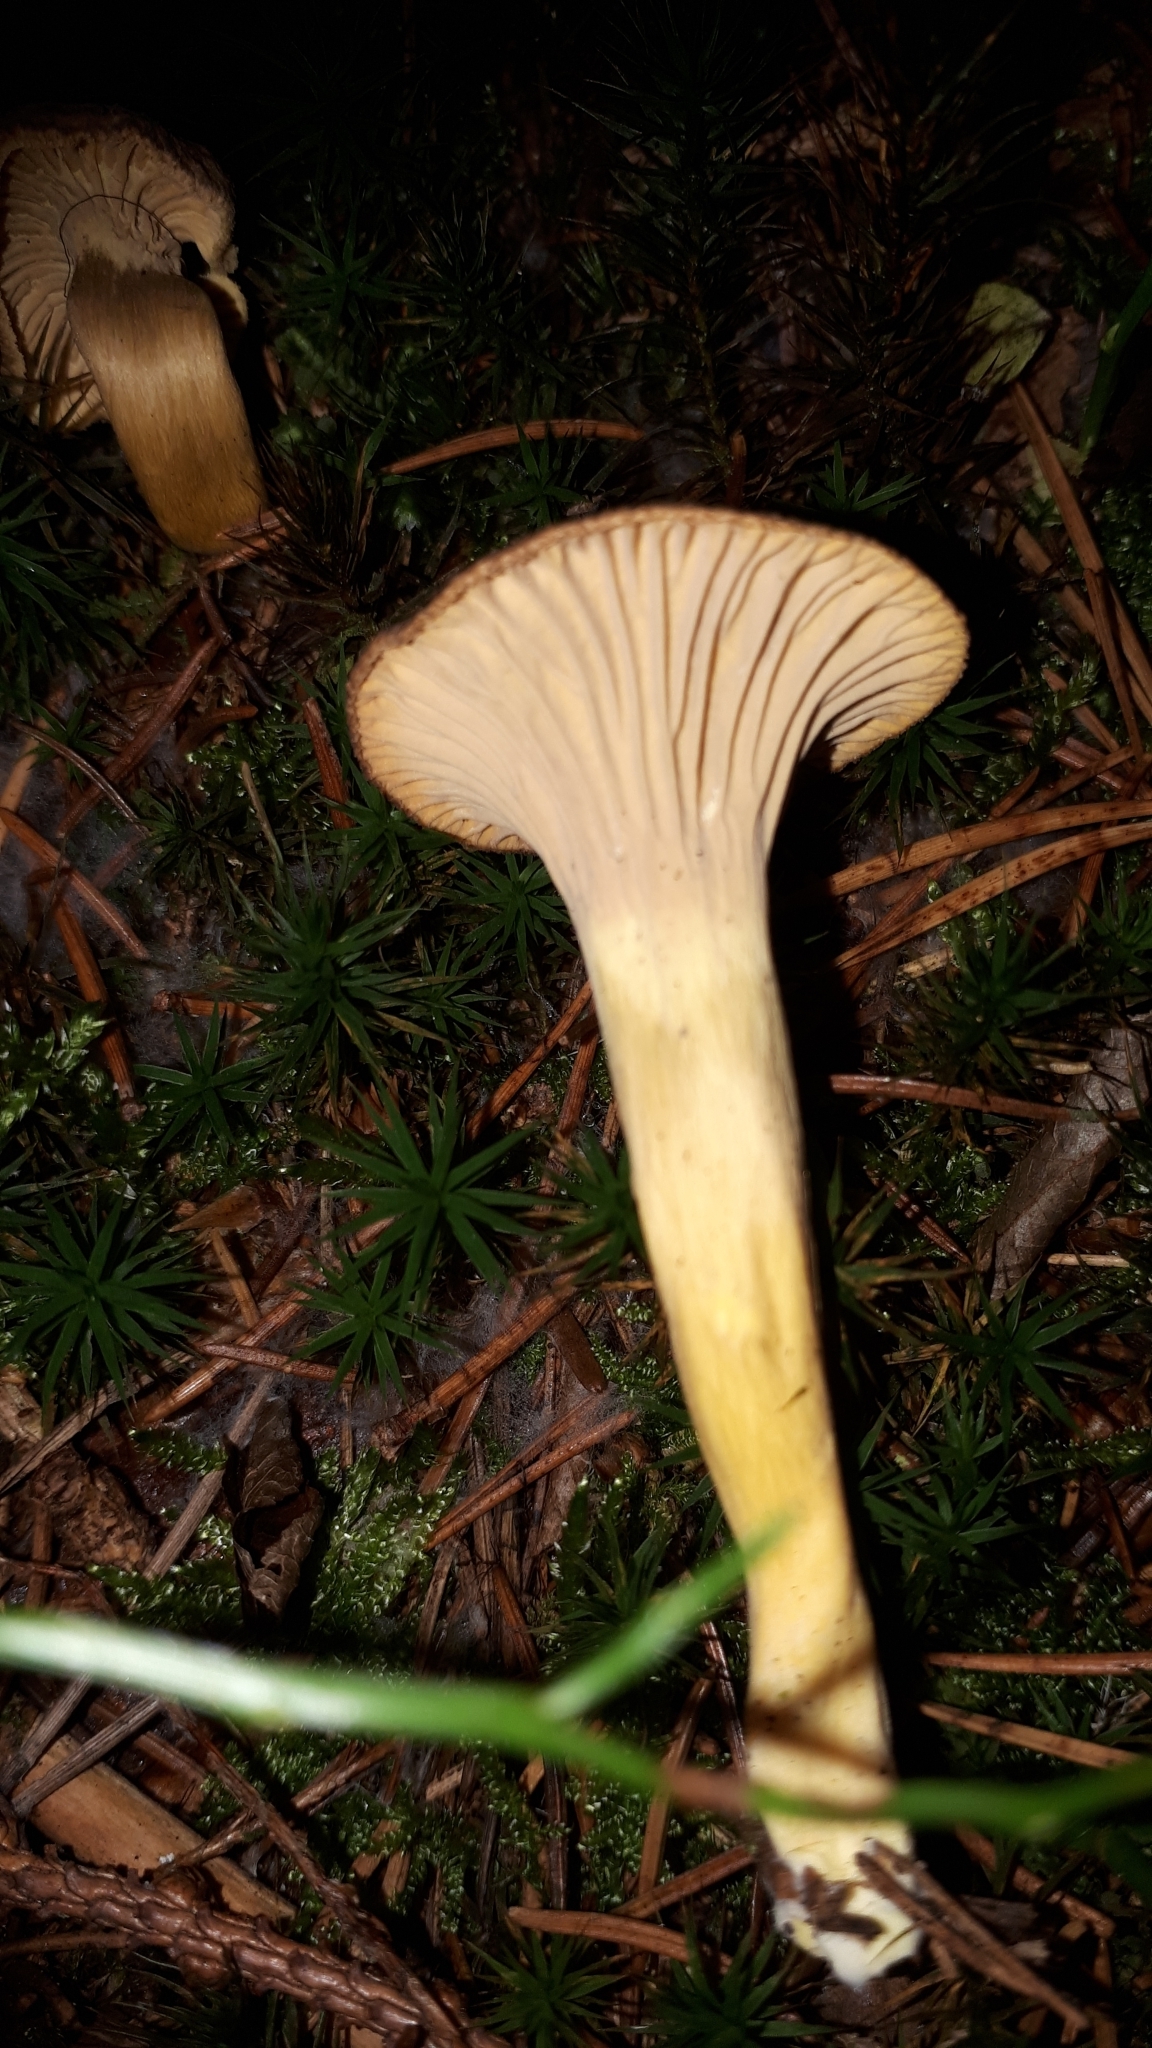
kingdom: Fungi
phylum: Basidiomycota
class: Agaricomycetes
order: Cantharellales
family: Hydnaceae
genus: Craterellus
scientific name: Craterellus tubaeformis
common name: Yellowfoot
